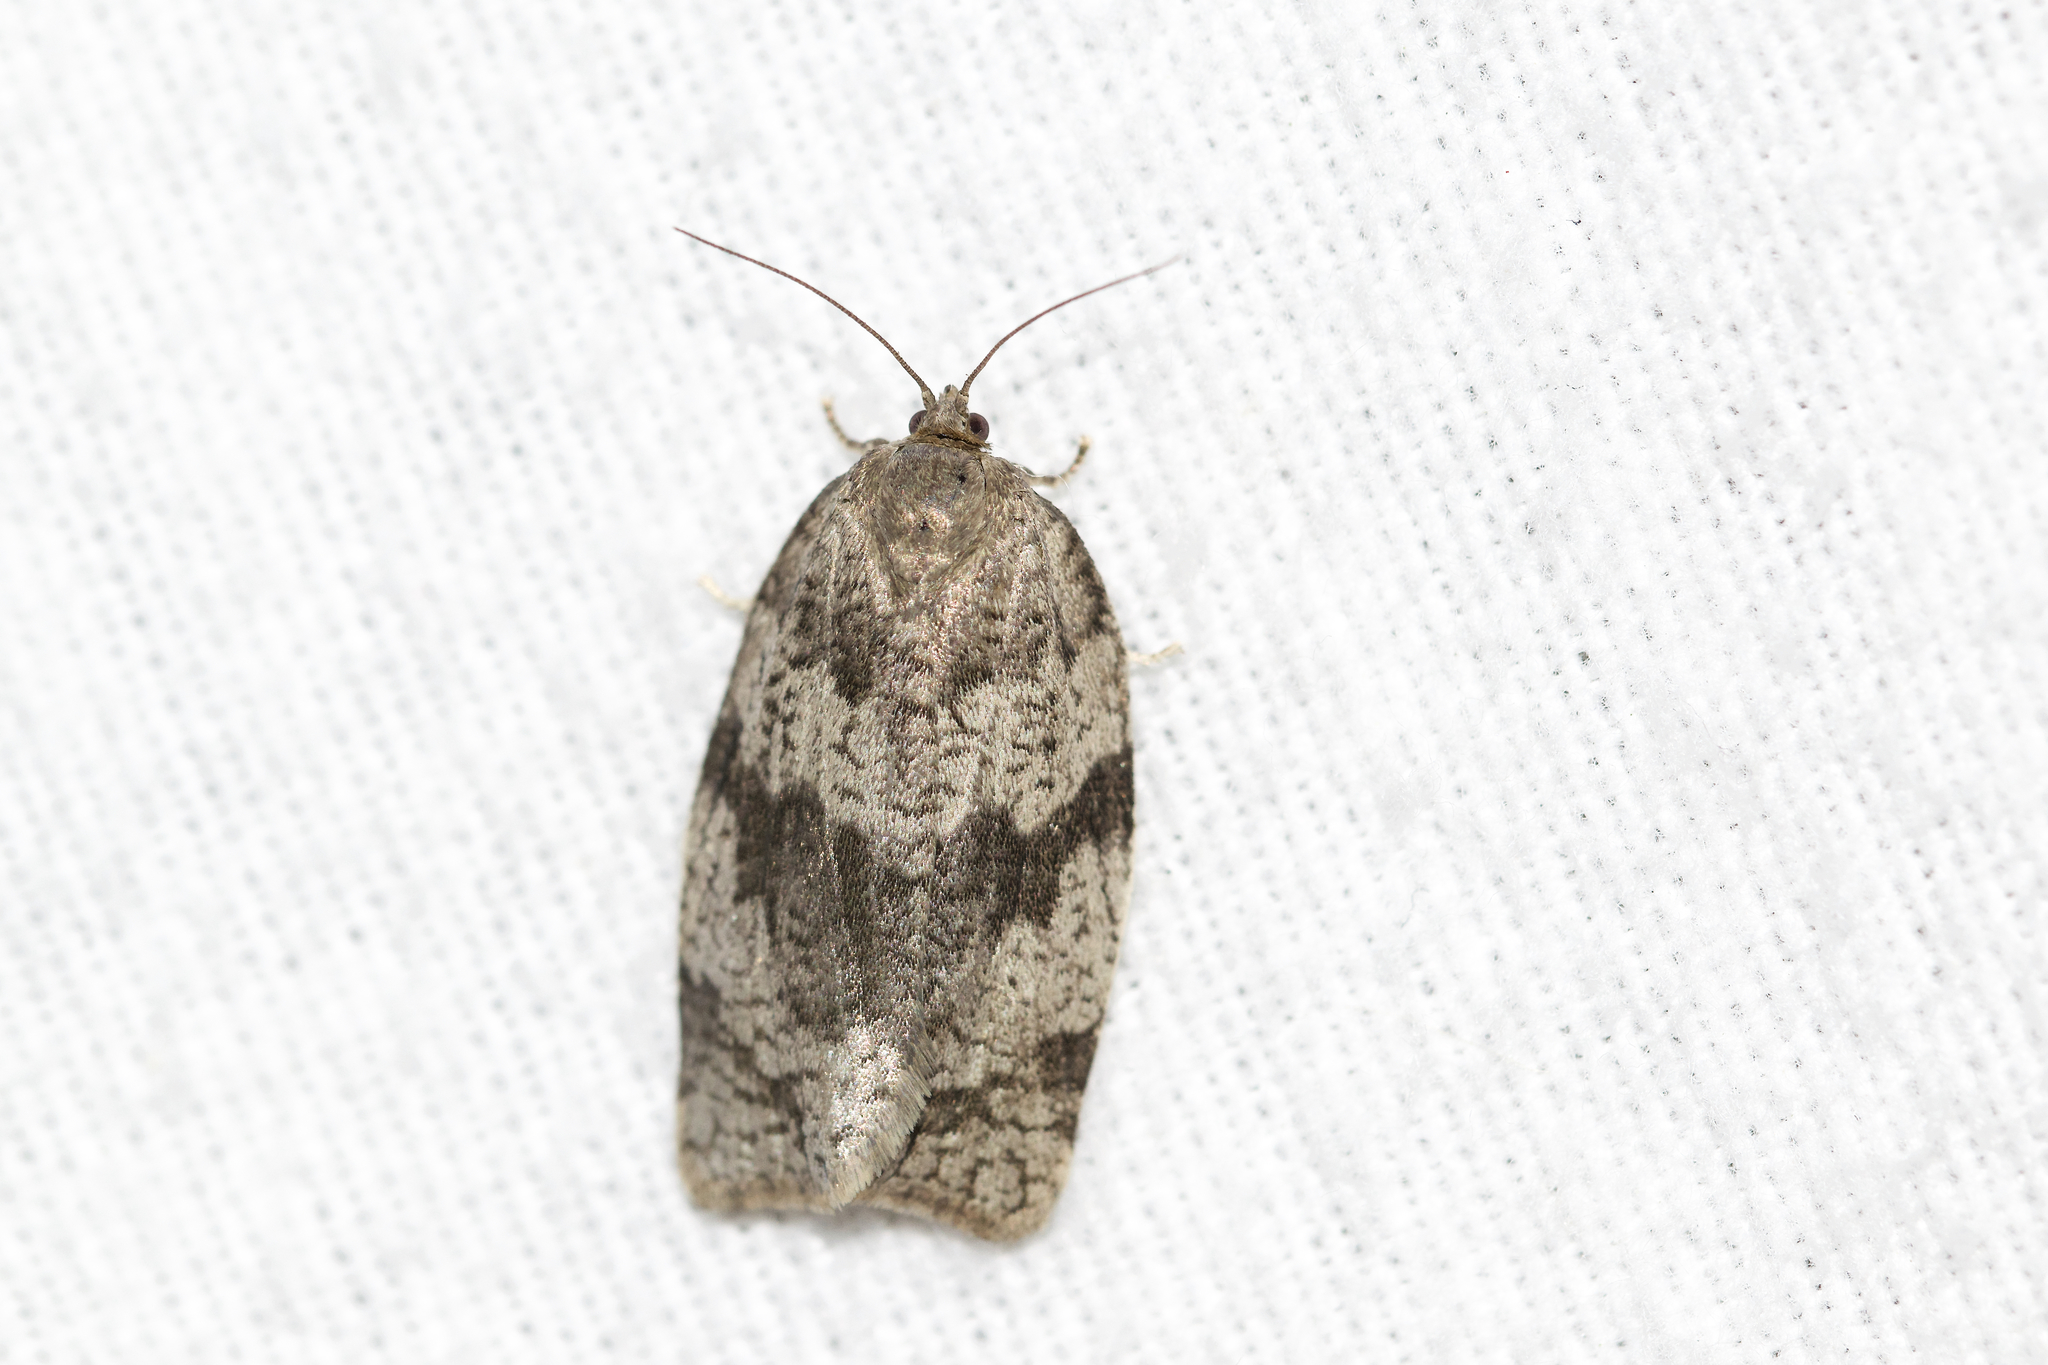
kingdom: Animalia
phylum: Arthropoda
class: Insecta
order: Lepidoptera
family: Tortricidae
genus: Syndemis
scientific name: Syndemis afflictana
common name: Gray leafroller moth
